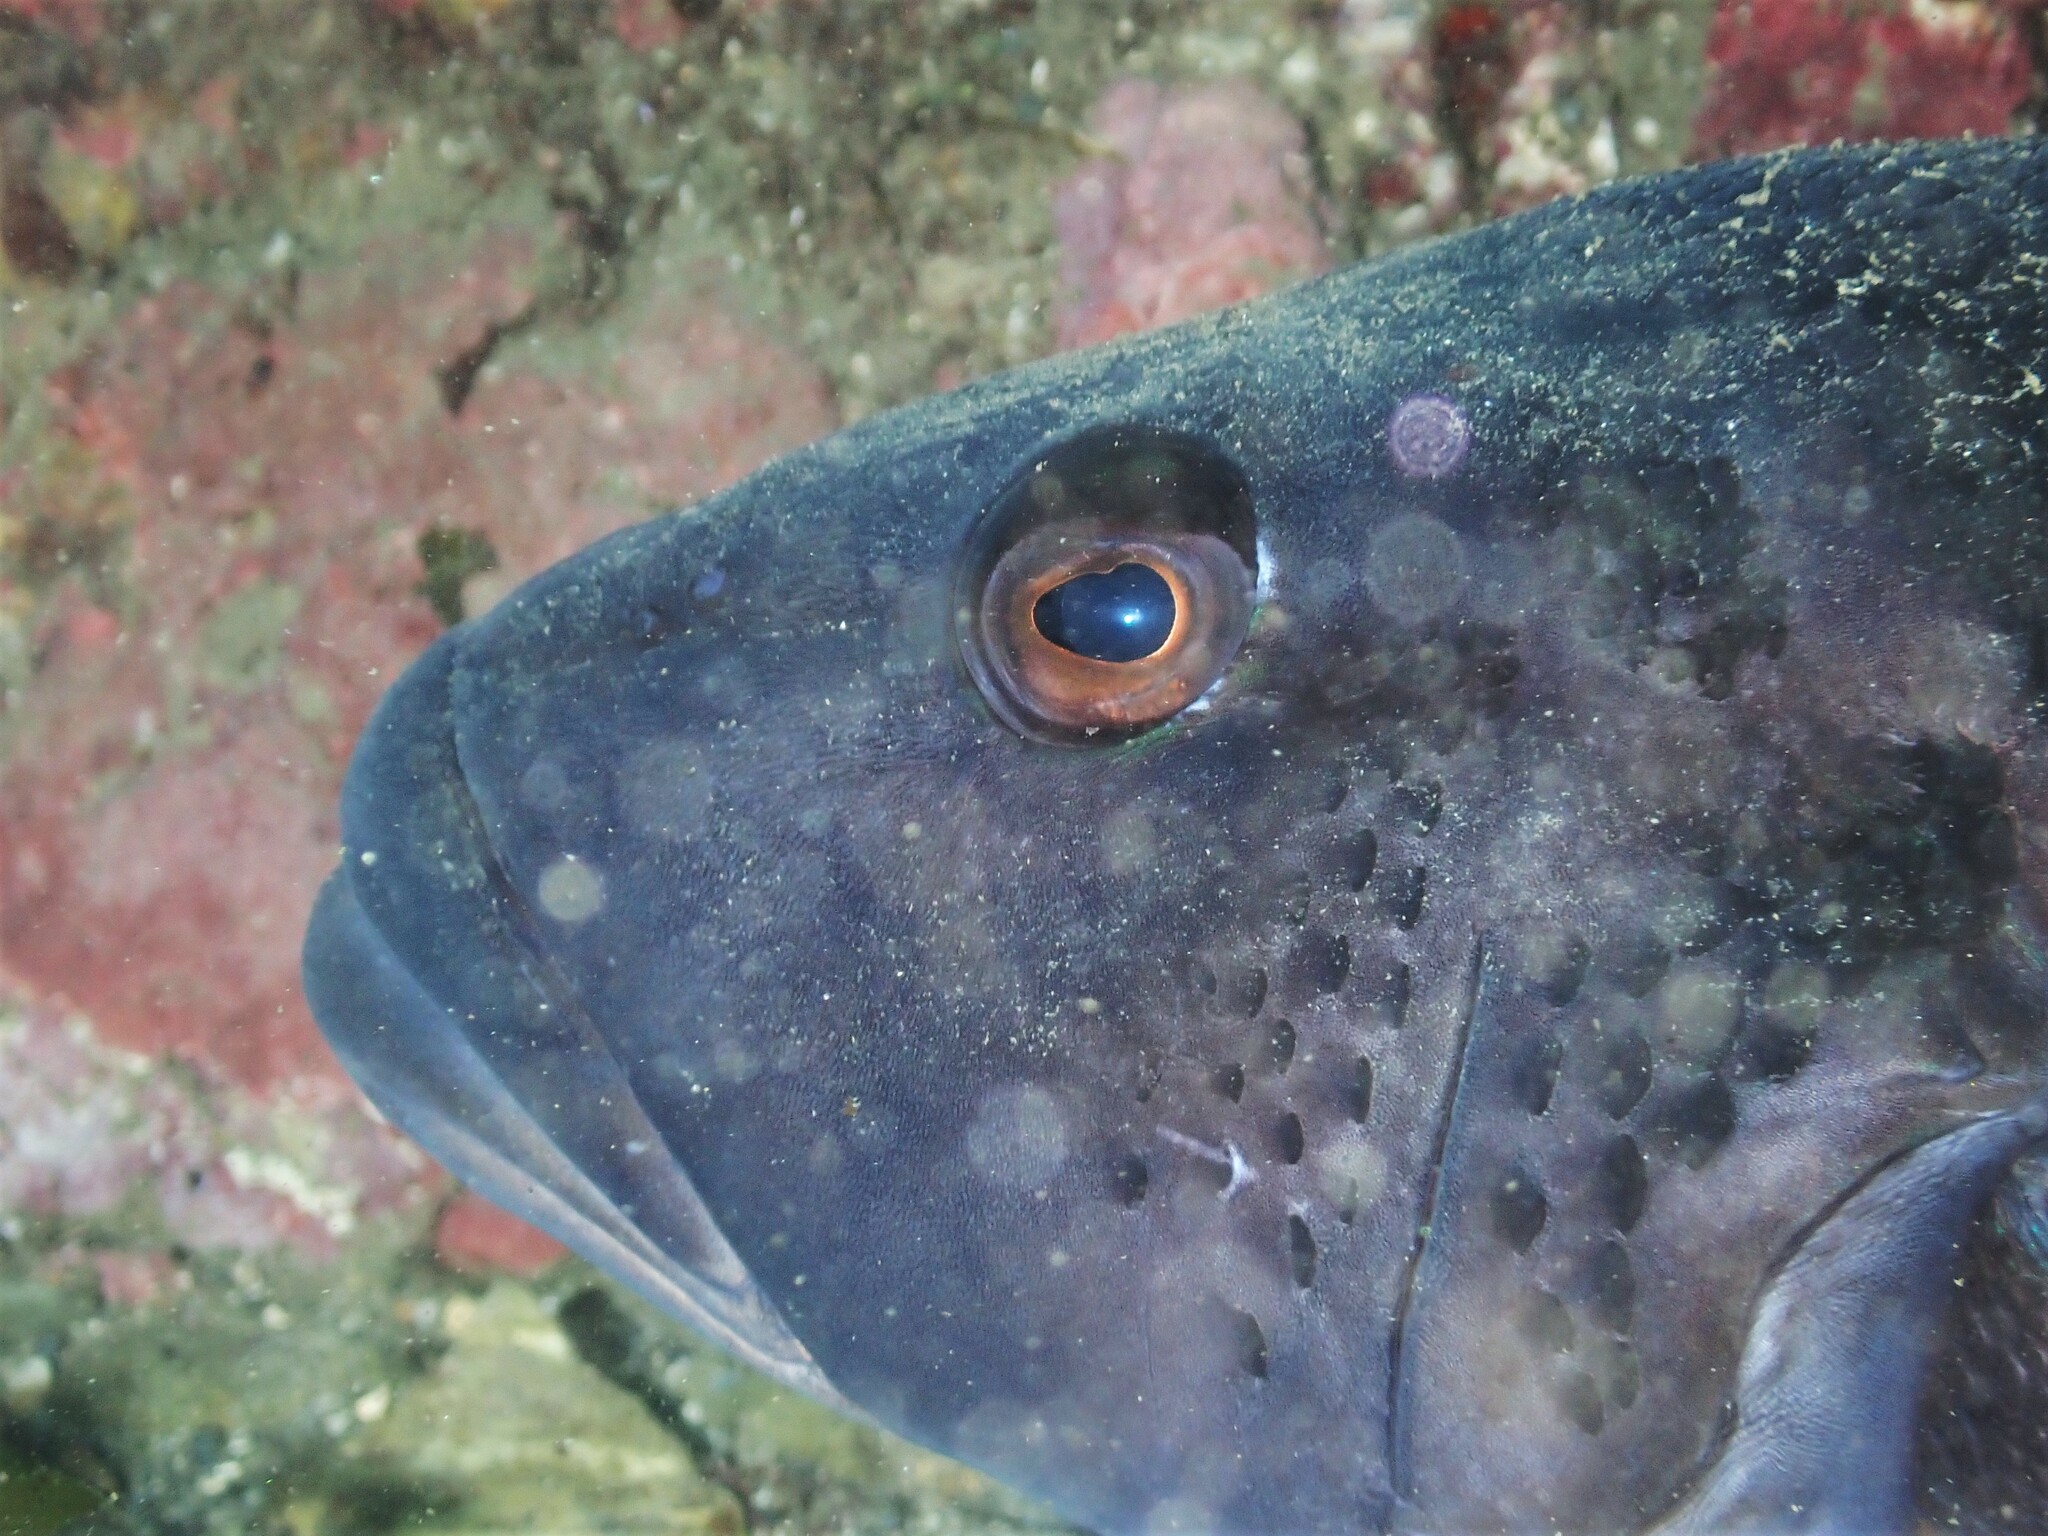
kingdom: Animalia
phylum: Chordata
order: Perciformes
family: Pinguipedidae
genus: Parapercis
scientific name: Parapercis colias
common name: Blue cod
